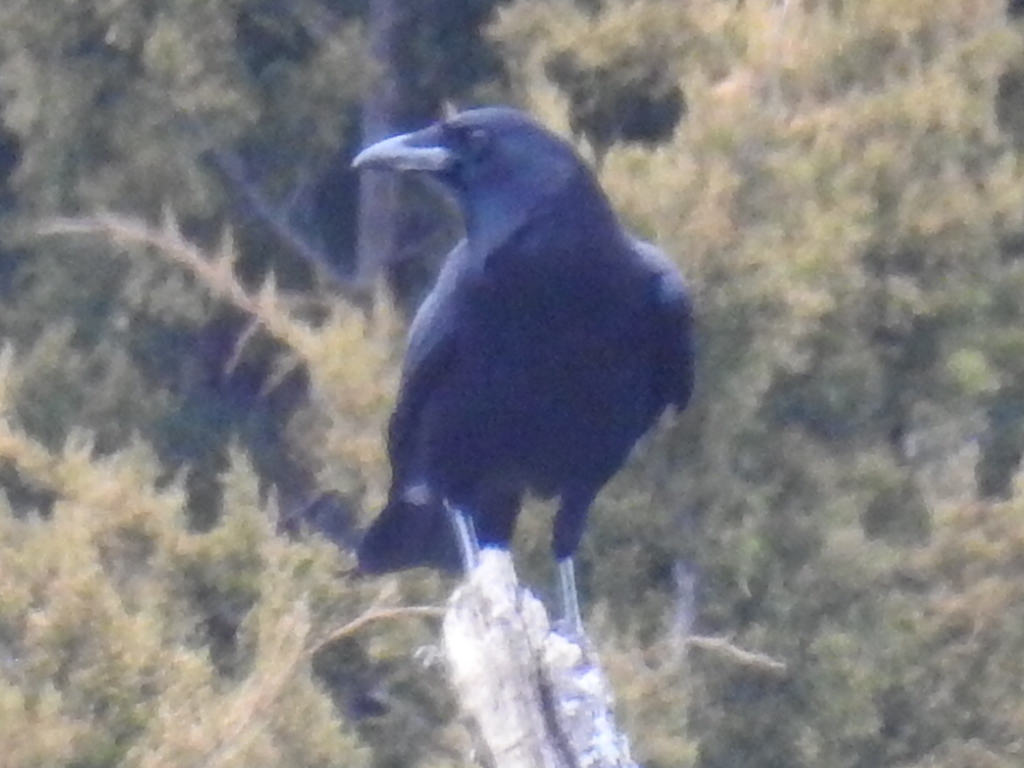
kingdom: Animalia
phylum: Chordata
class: Aves
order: Passeriformes
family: Corvidae
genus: Corvus
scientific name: Corvus brachyrhynchos
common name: American crow
